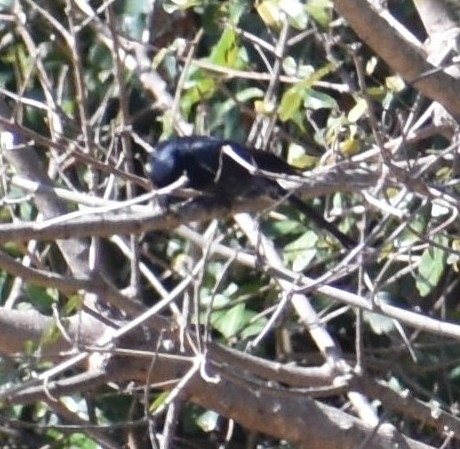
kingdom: Animalia
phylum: Chordata
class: Aves
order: Passeriformes
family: Dicruridae
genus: Dicrurus
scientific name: Dicrurus adsimilis
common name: Fork-tailed drongo
